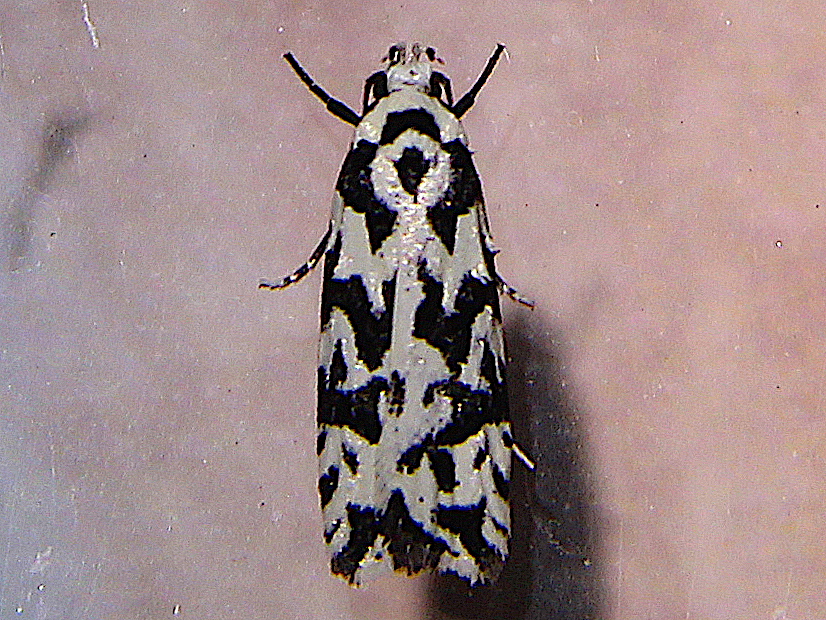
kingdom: Animalia
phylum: Arthropoda
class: Insecta
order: Lepidoptera
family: Oecophoridae
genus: Izatha
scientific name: Izatha
